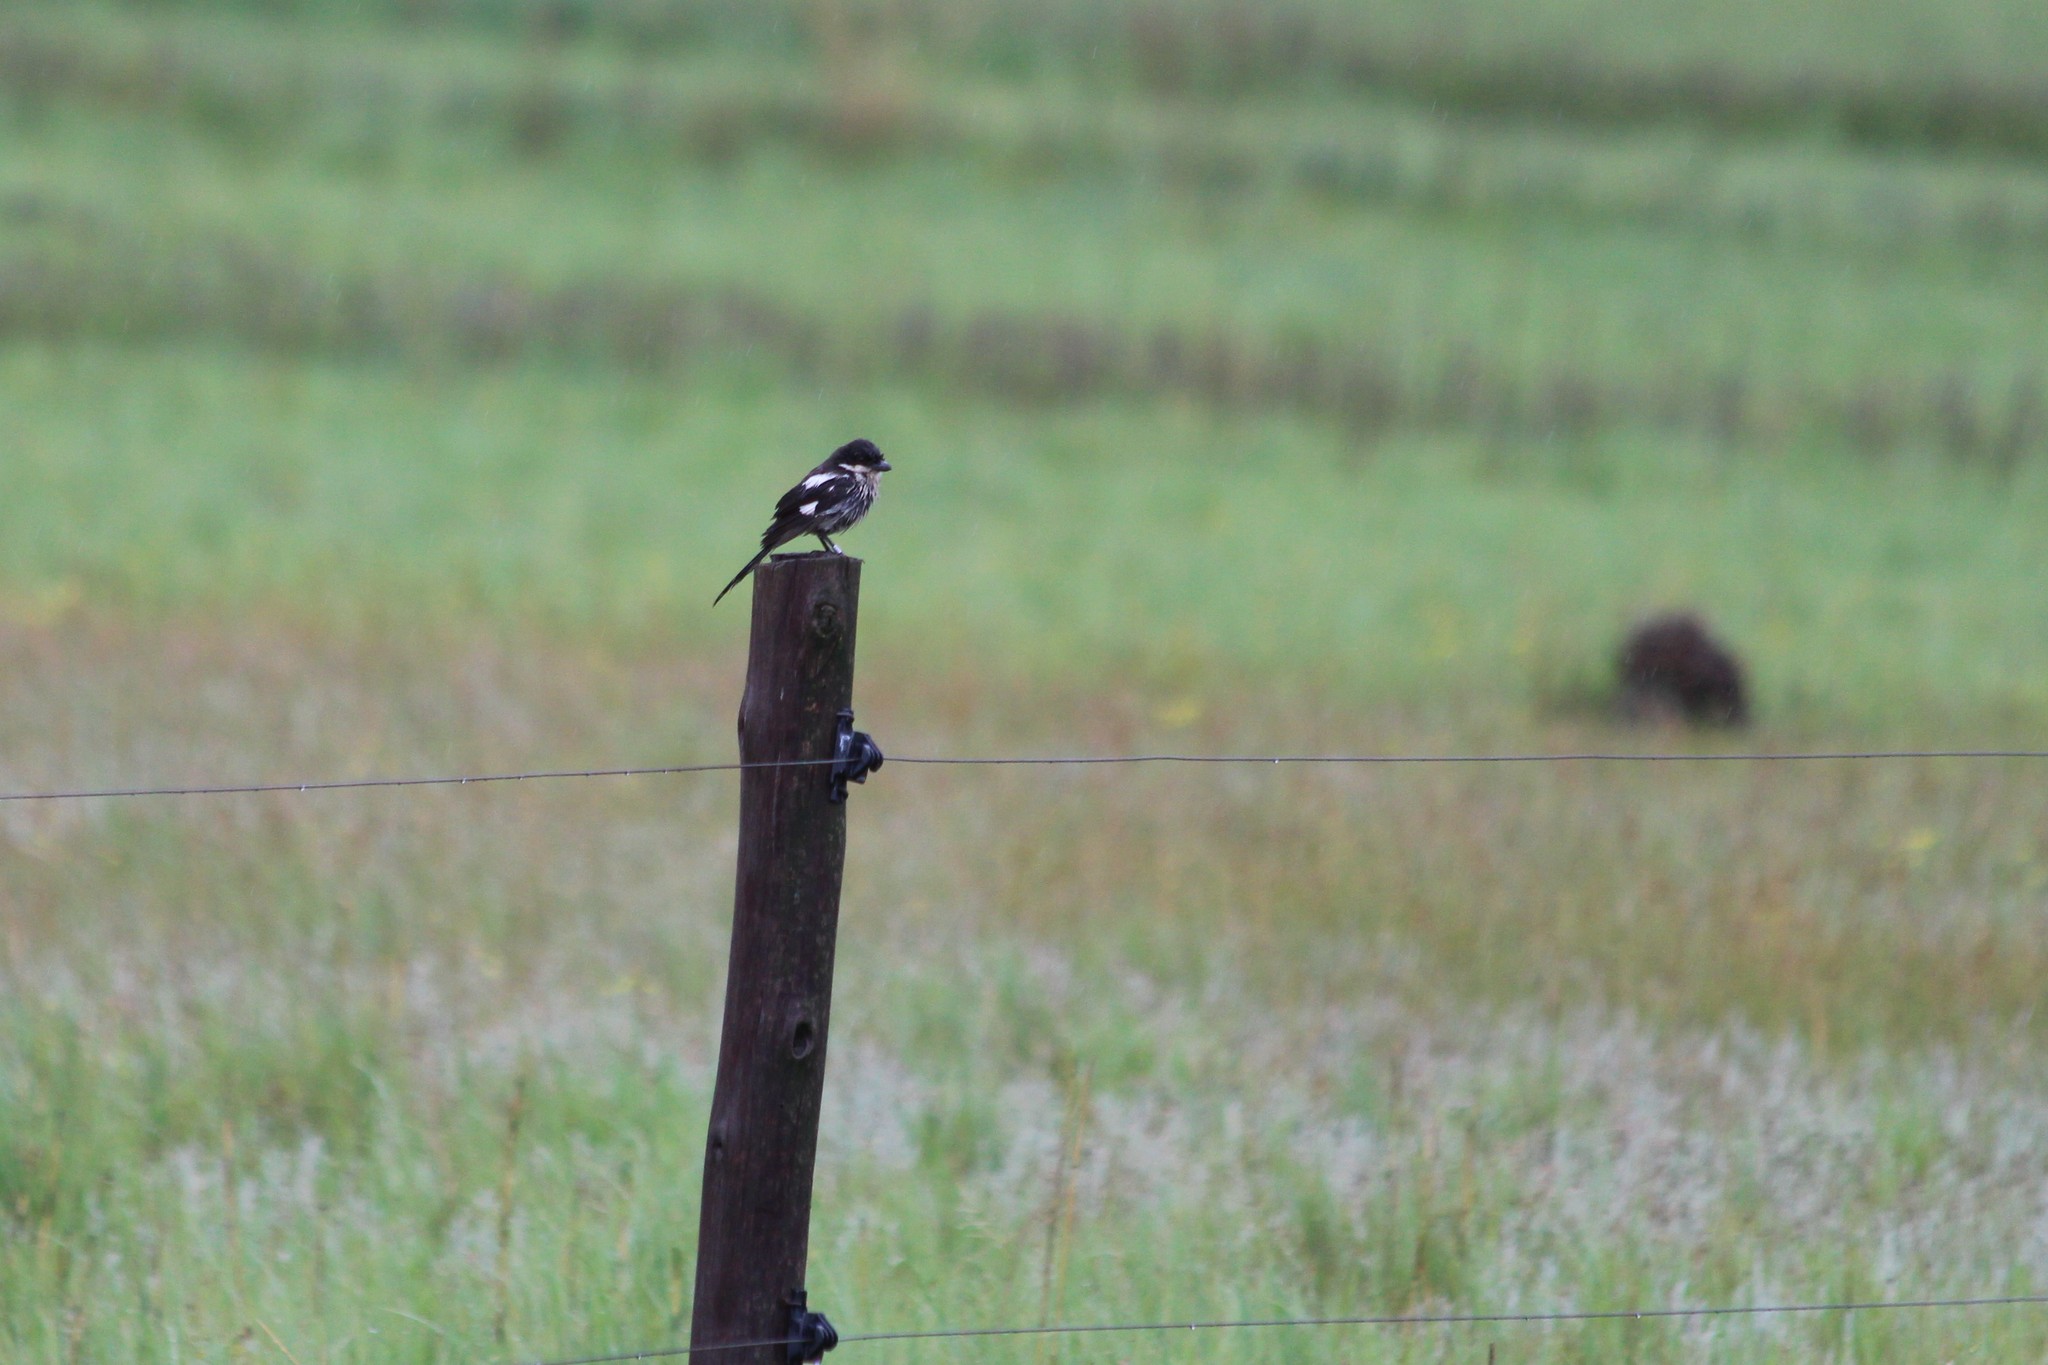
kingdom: Animalia
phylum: Chordata
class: Aves
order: Passeriformes
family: Laniidae
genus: Lanius
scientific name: Lanius collaris
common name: Southern fiscal
